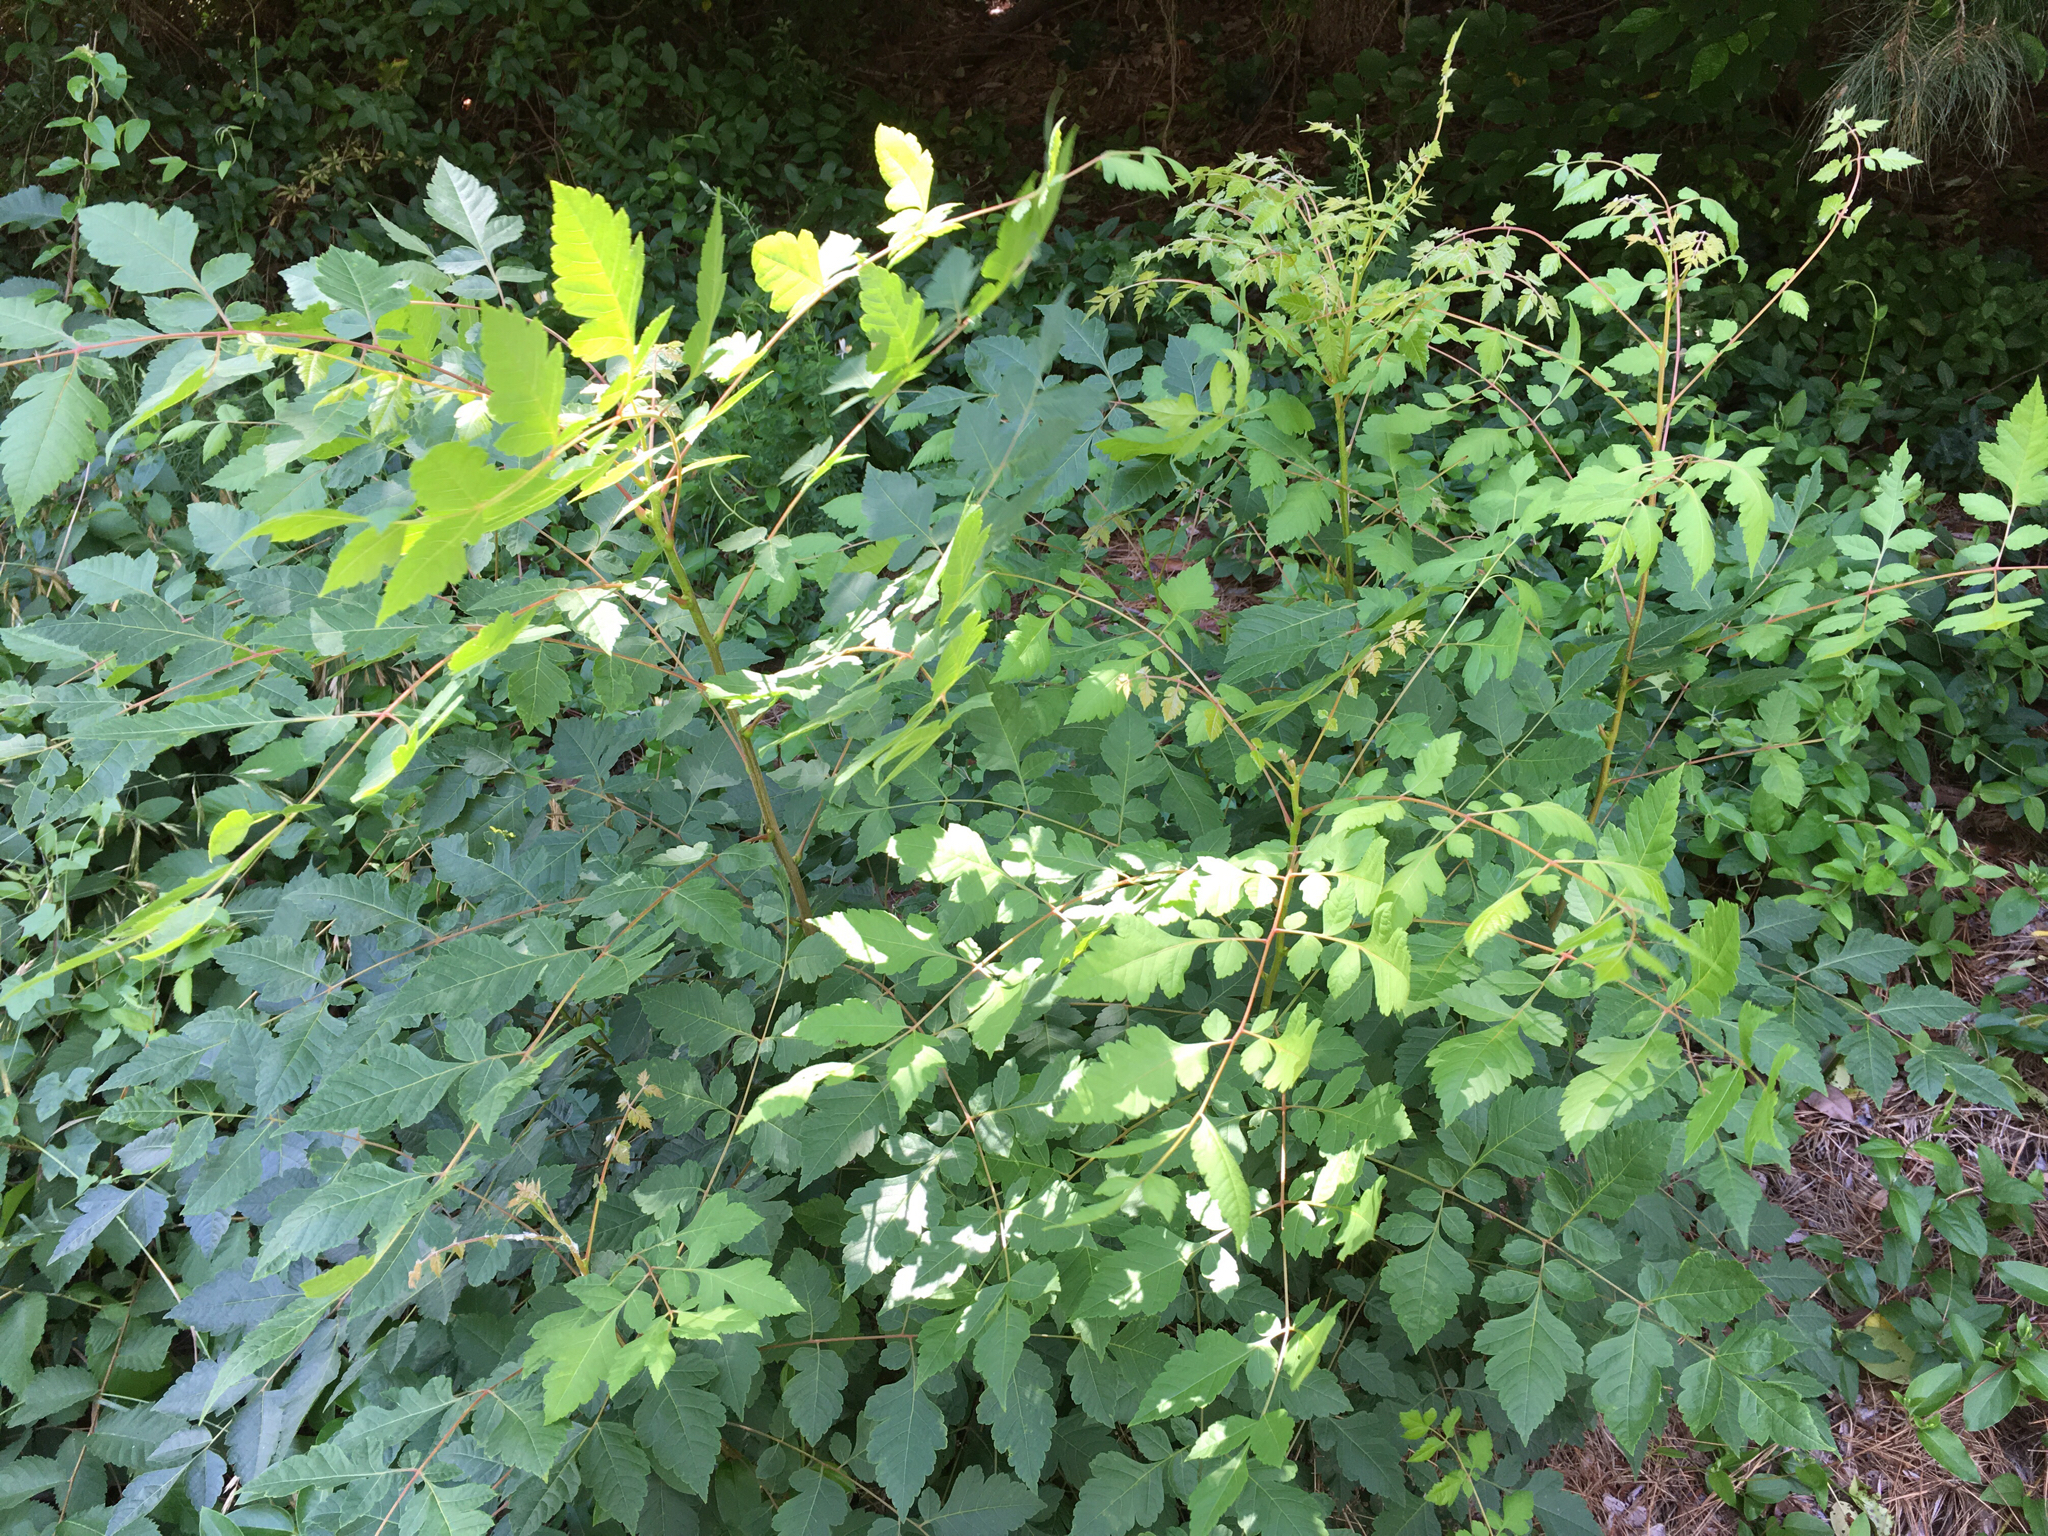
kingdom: Plantae
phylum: Tracheophyta
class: Magnoliopsida
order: Sapindales
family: Sapindaceae
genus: Koelreuteria
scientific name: Koelreuteria paniculata
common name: Pride-of-india
